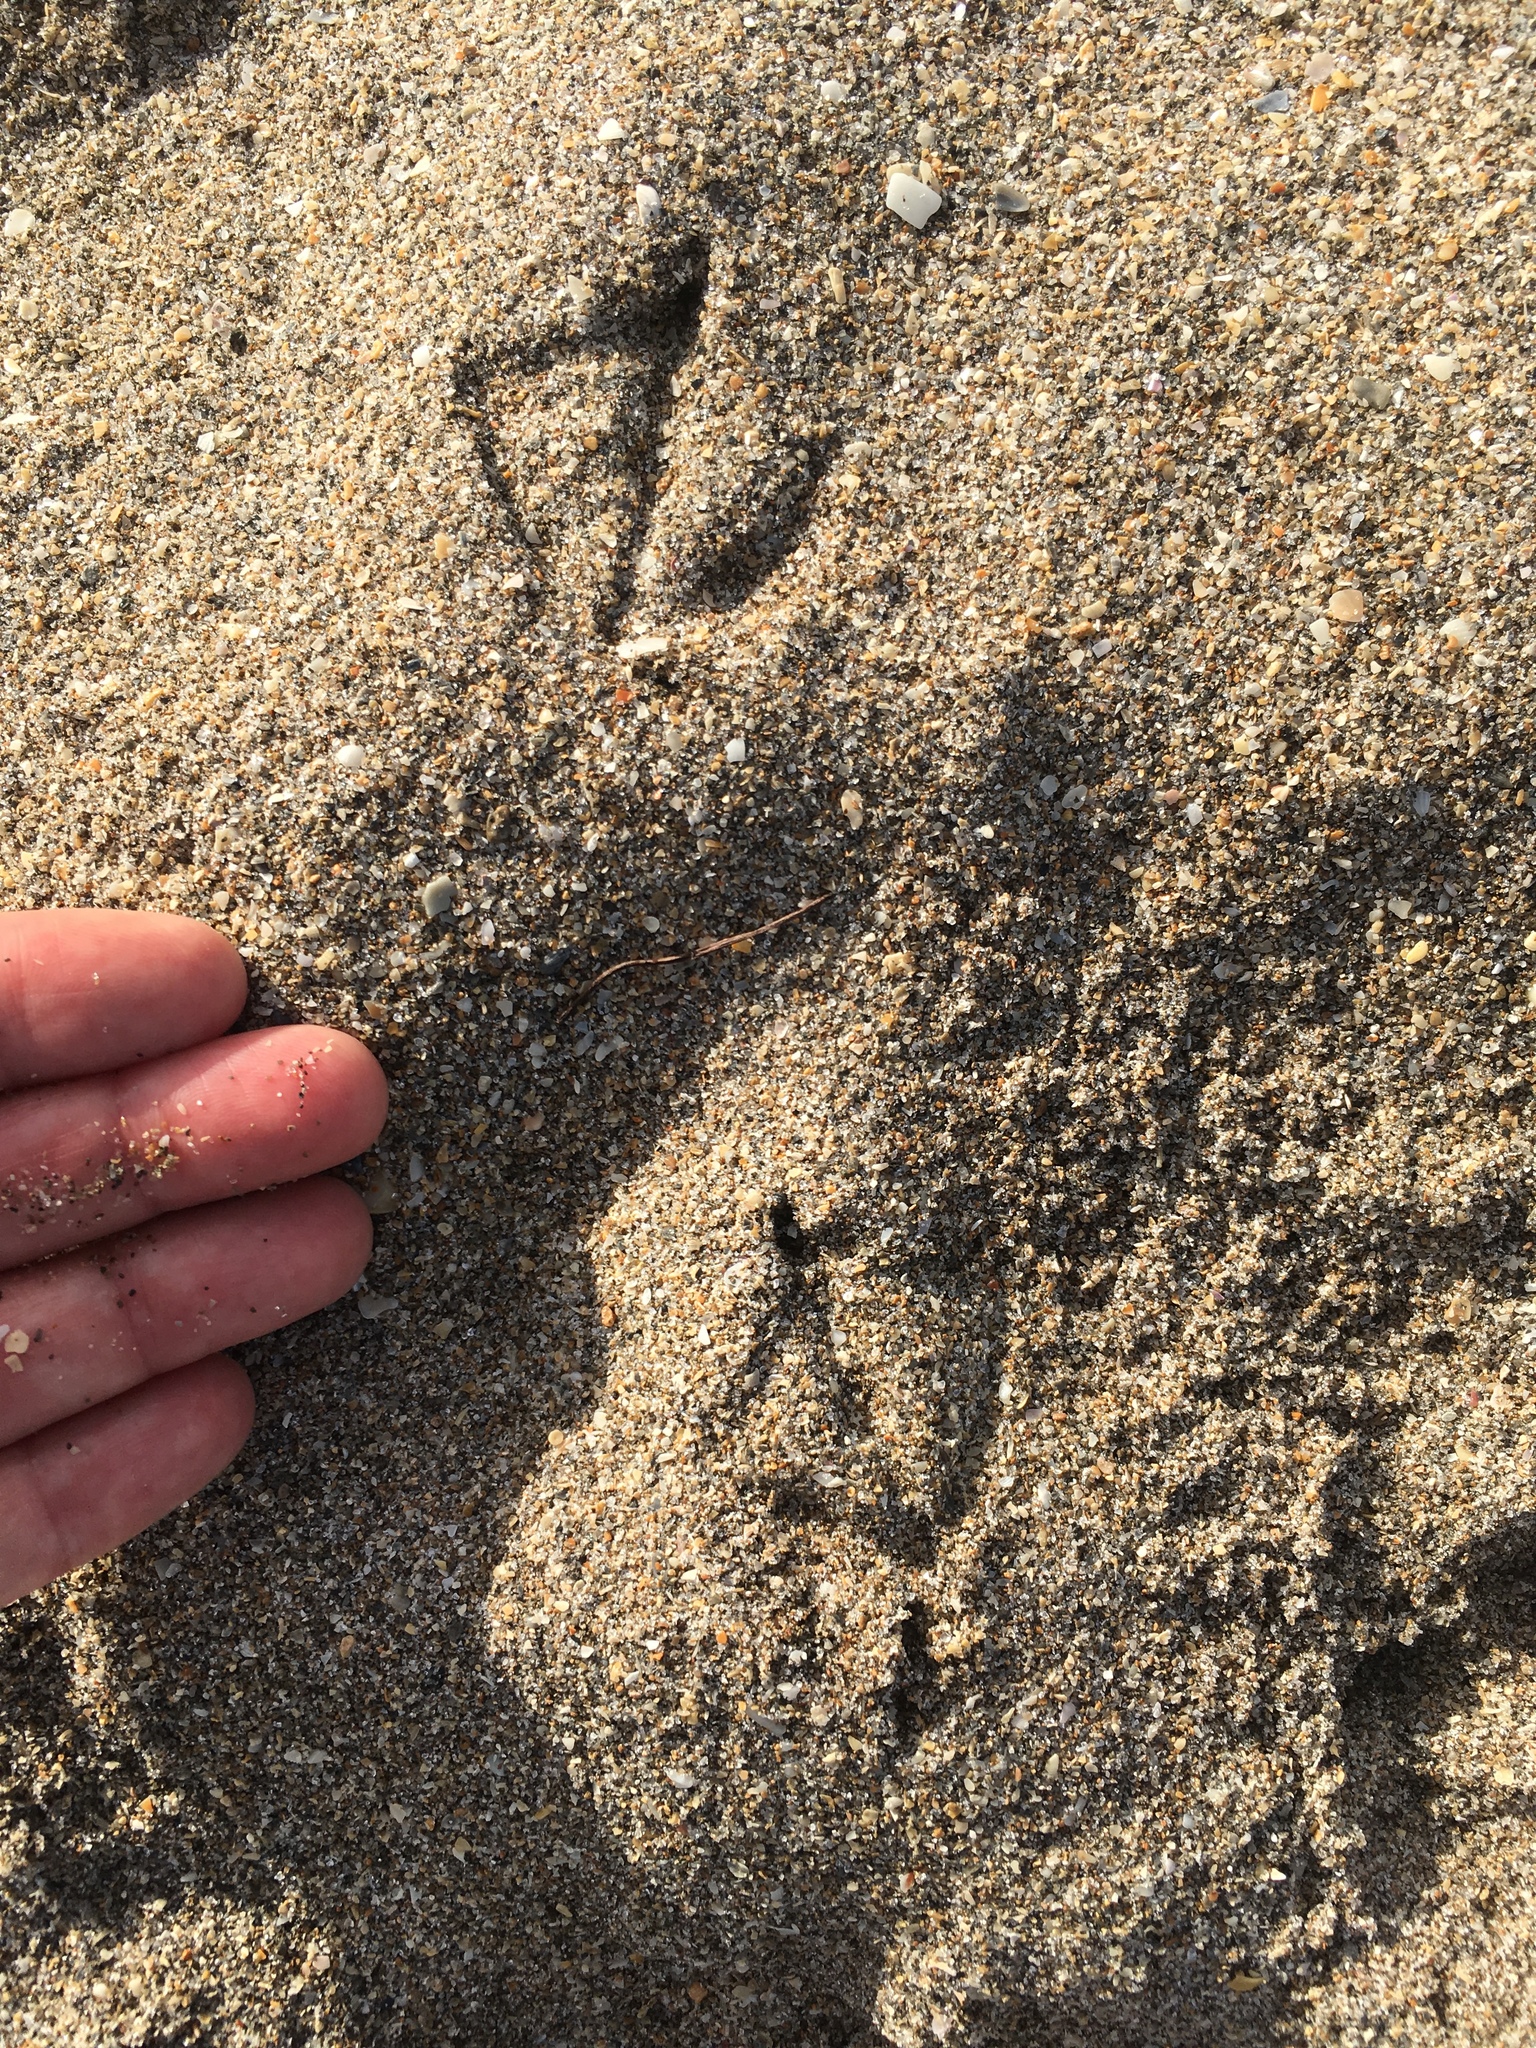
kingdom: Animalia
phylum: Chordata
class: Aves
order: Charadriiformes
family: Laridae
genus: Larus
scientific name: Larus delawarensis
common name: Ring-billed gull
